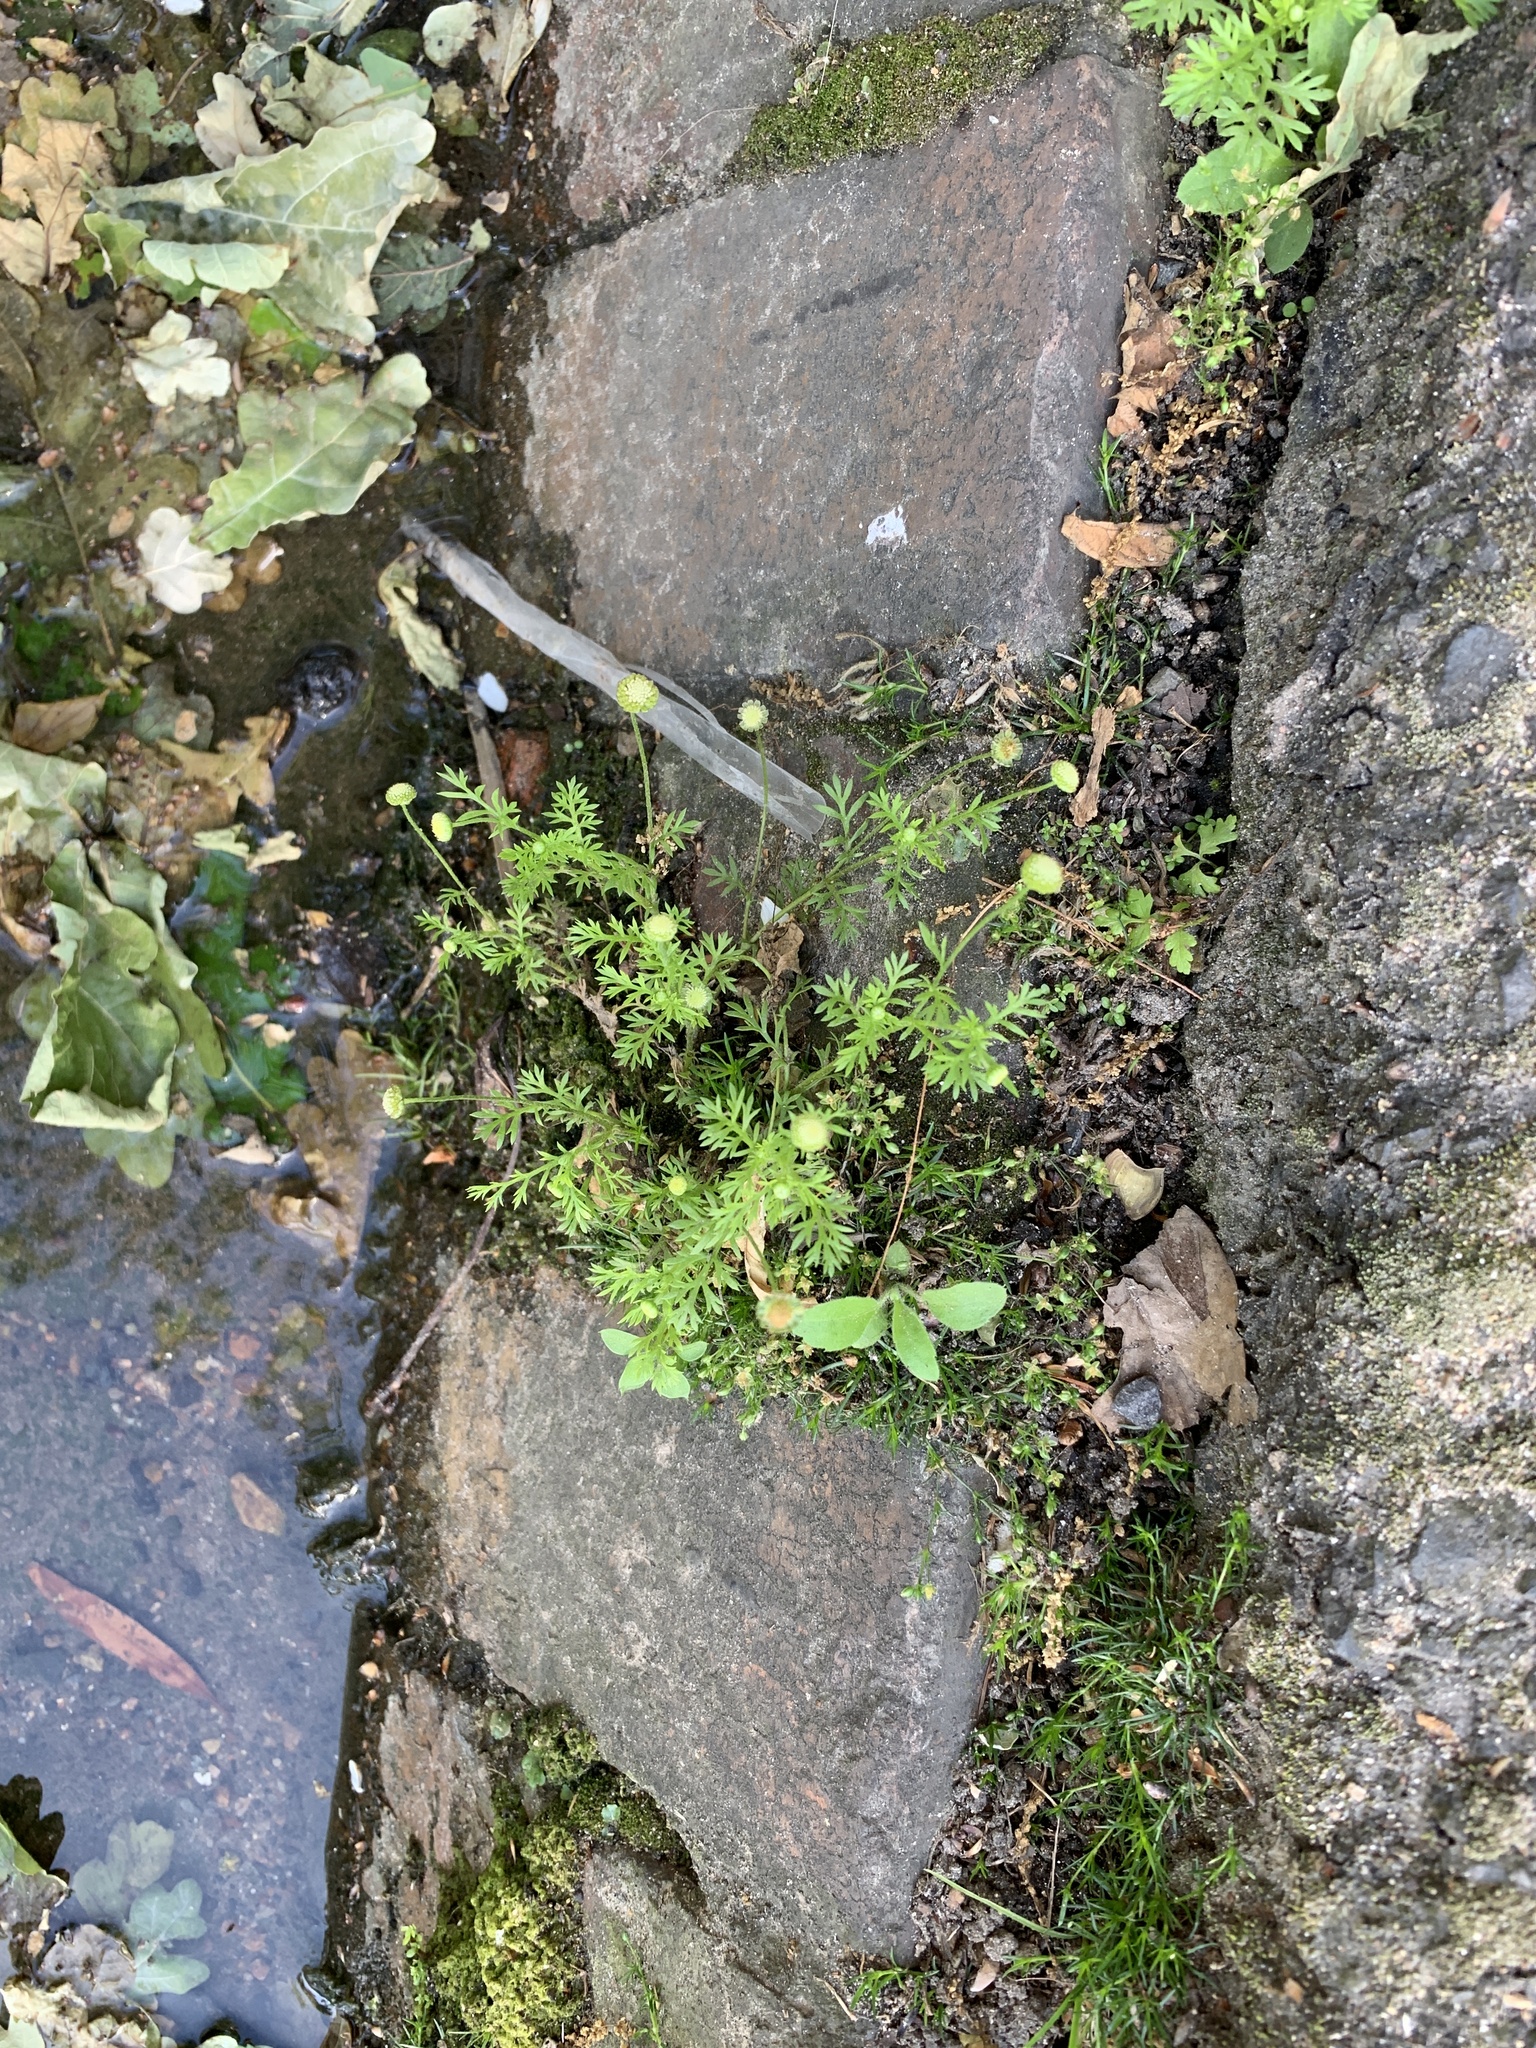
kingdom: Plantae
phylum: Tracheophyta
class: Magnoliopsida
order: Asterales
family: Asteraceae
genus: Cotula
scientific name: Cotula australis
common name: Australian waterbuttons
